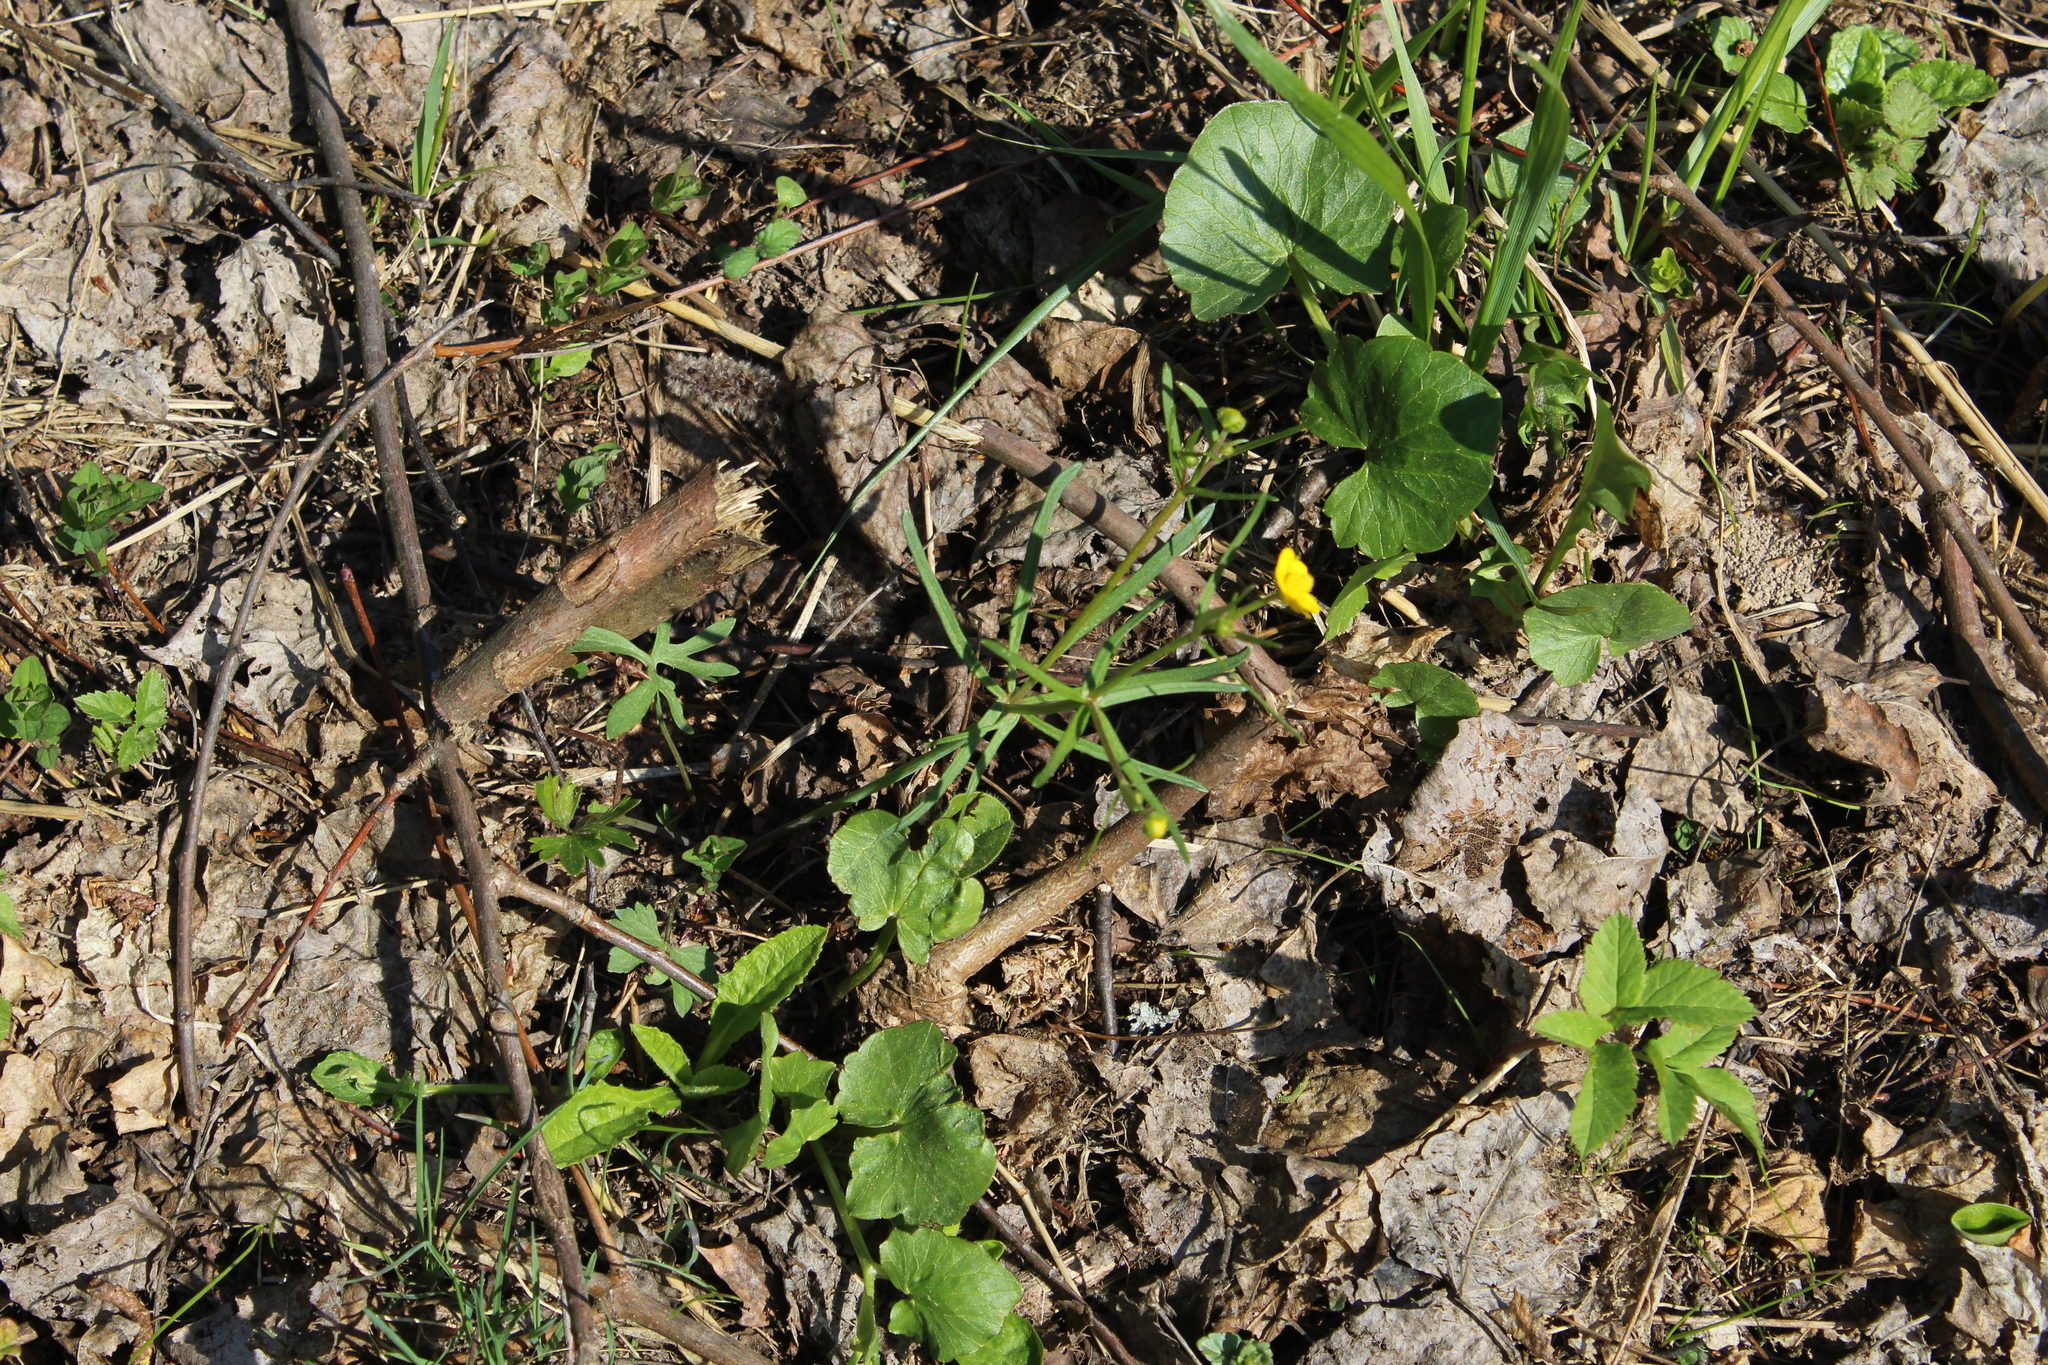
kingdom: Plantae
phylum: Tracheophyta
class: Magnoliopsida
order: Ranunculales
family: Ranunculaceae
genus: Ranunculus
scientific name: Ranunculus auricomus
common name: Goldilocks buttercup
